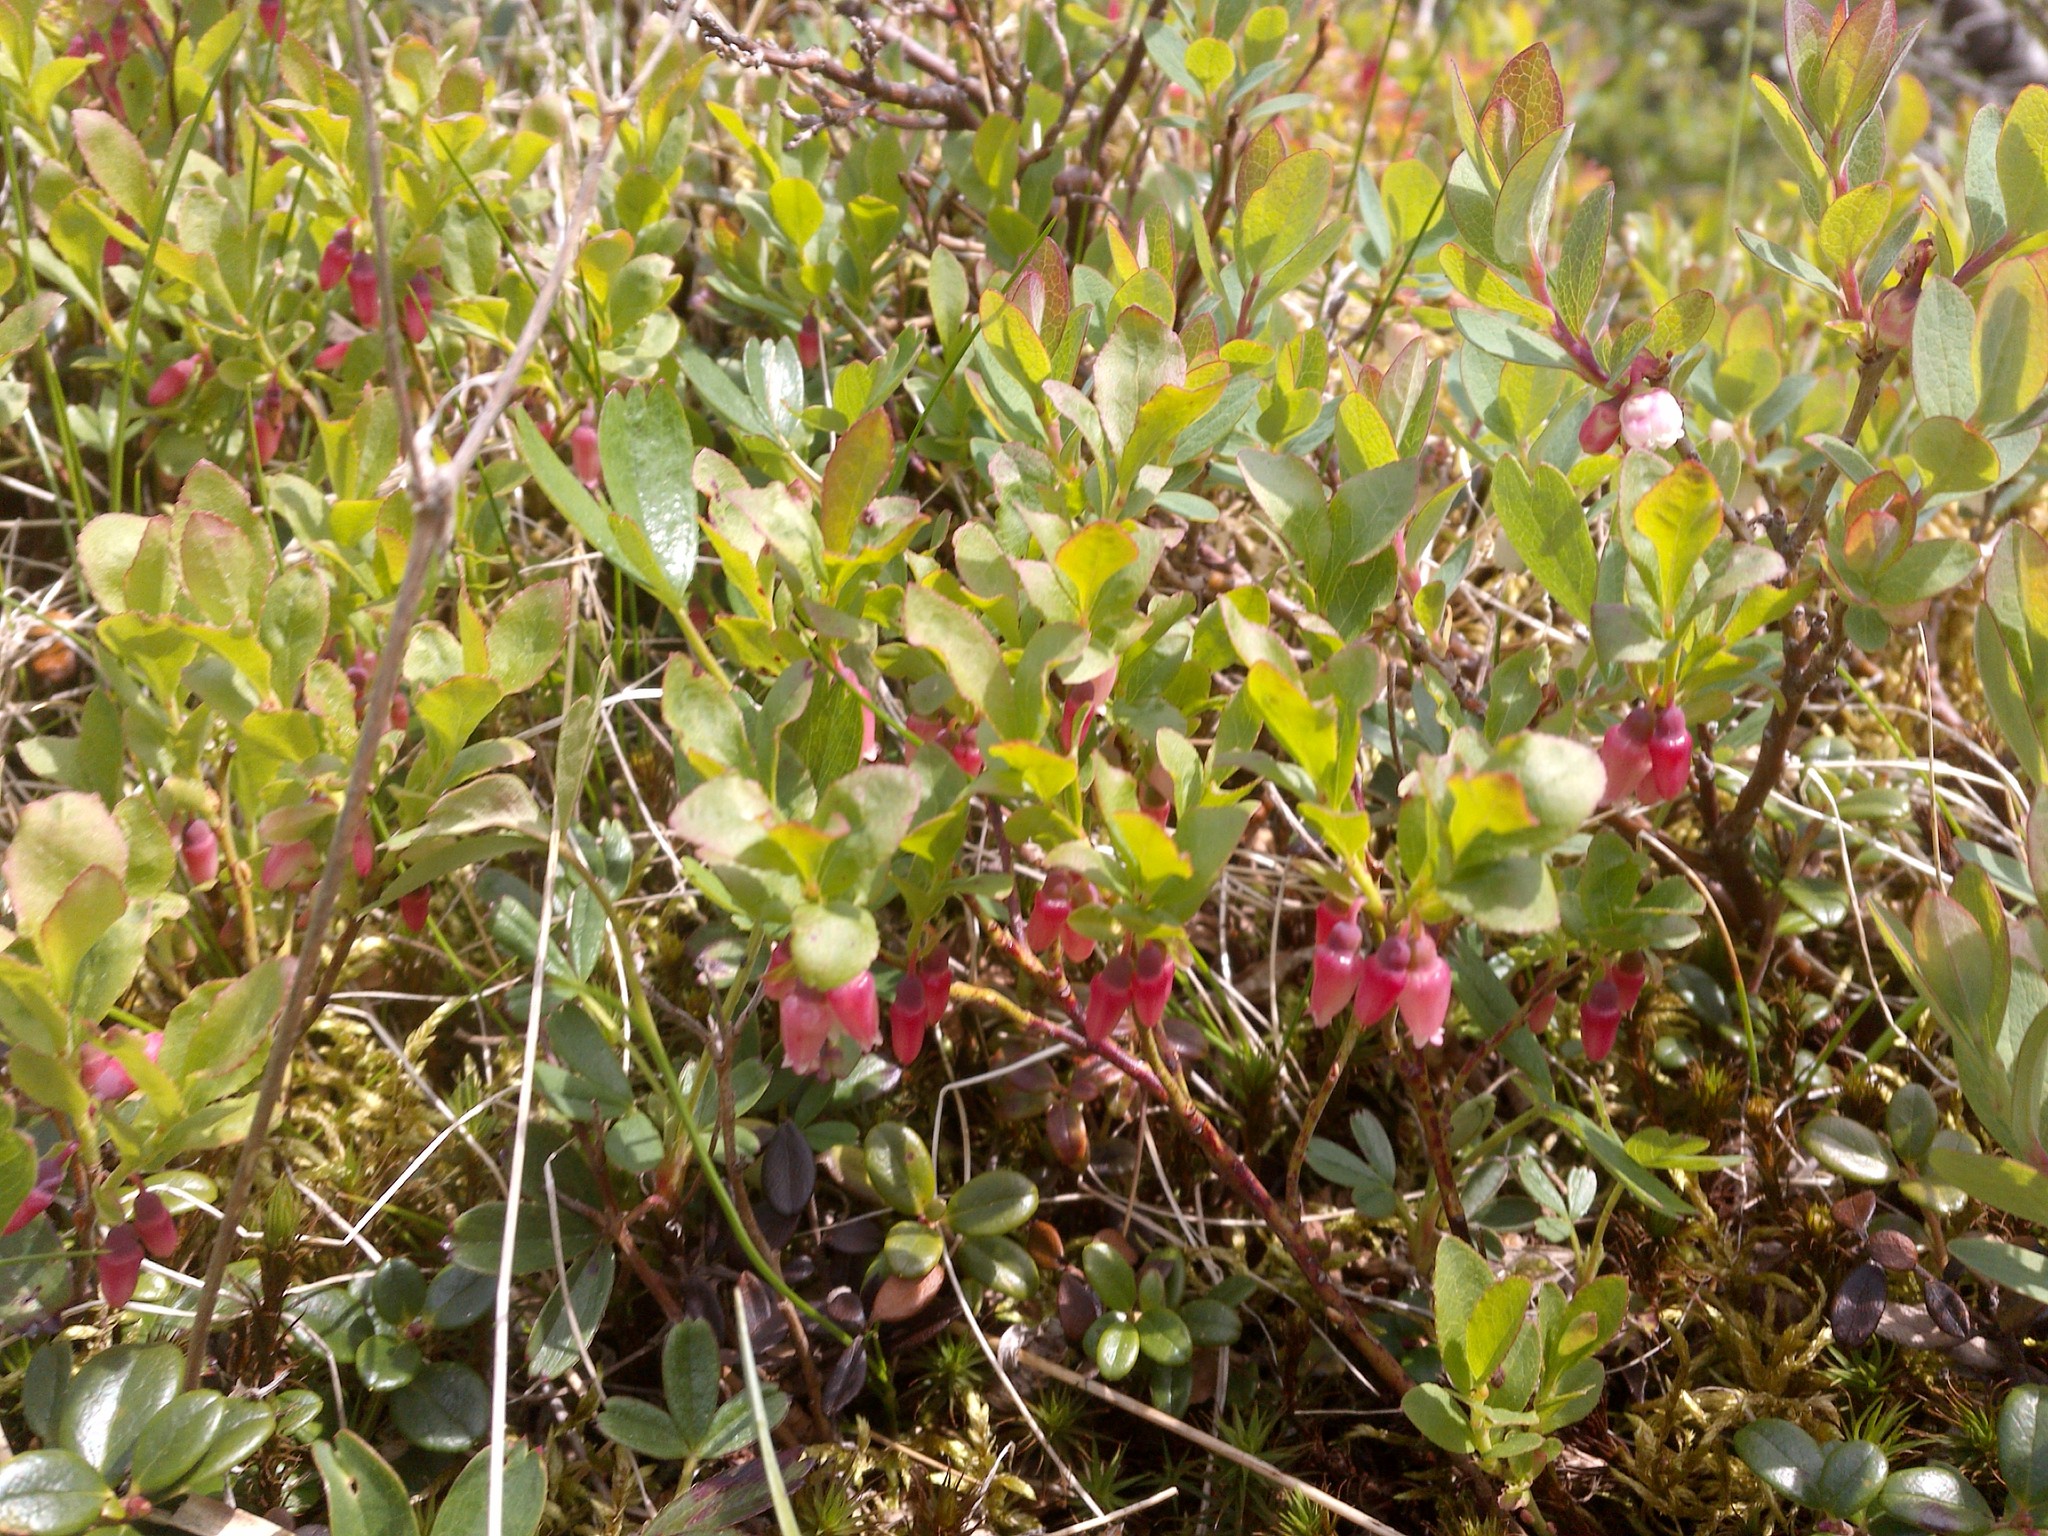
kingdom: Plantae
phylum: Tracheophyta
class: Magnoliopsida
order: Ericales
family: Ericaceae
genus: Vaccinium
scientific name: Vaccinium cespitosum
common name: Dwarf bilberry
